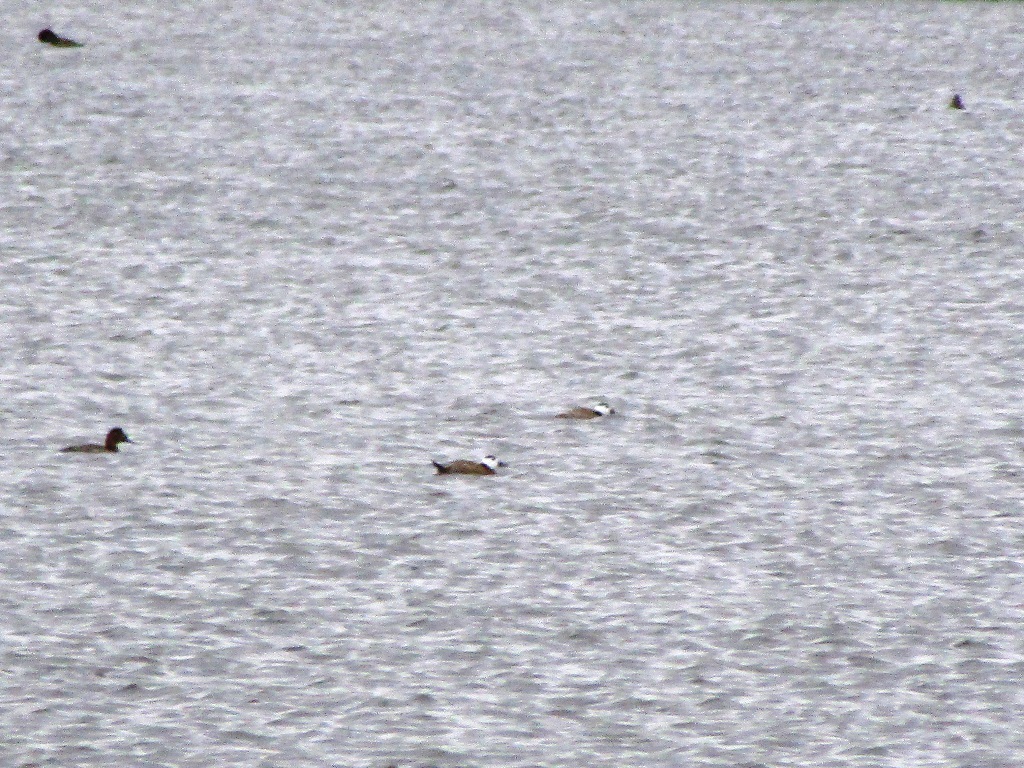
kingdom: Animalia
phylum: Chordata
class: Aves
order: Anseriformes
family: Anatidae
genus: Oxyura
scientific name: Oxyura leucocephala
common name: White-headed duck
